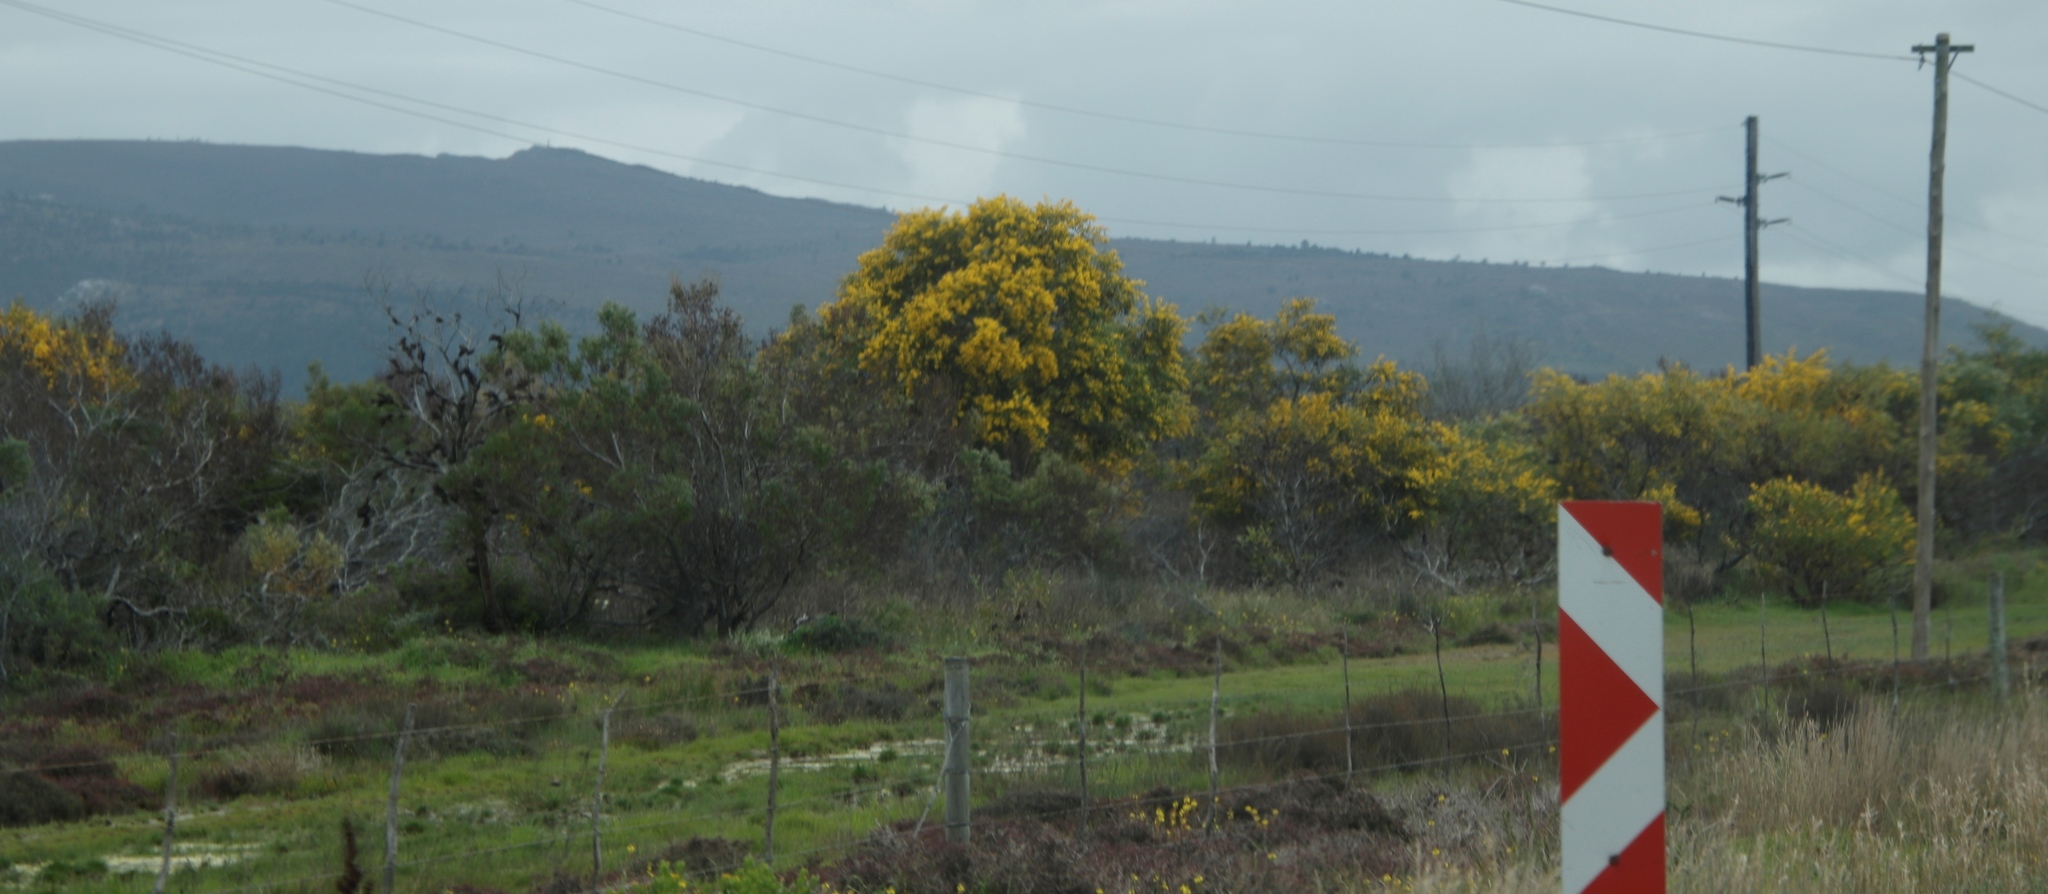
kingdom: Plantae
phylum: Tracheophyta
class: Magnoliopsida
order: Fabales
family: Fabaceae
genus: Acacia
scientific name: Acacia saligna
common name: Orange wattle
